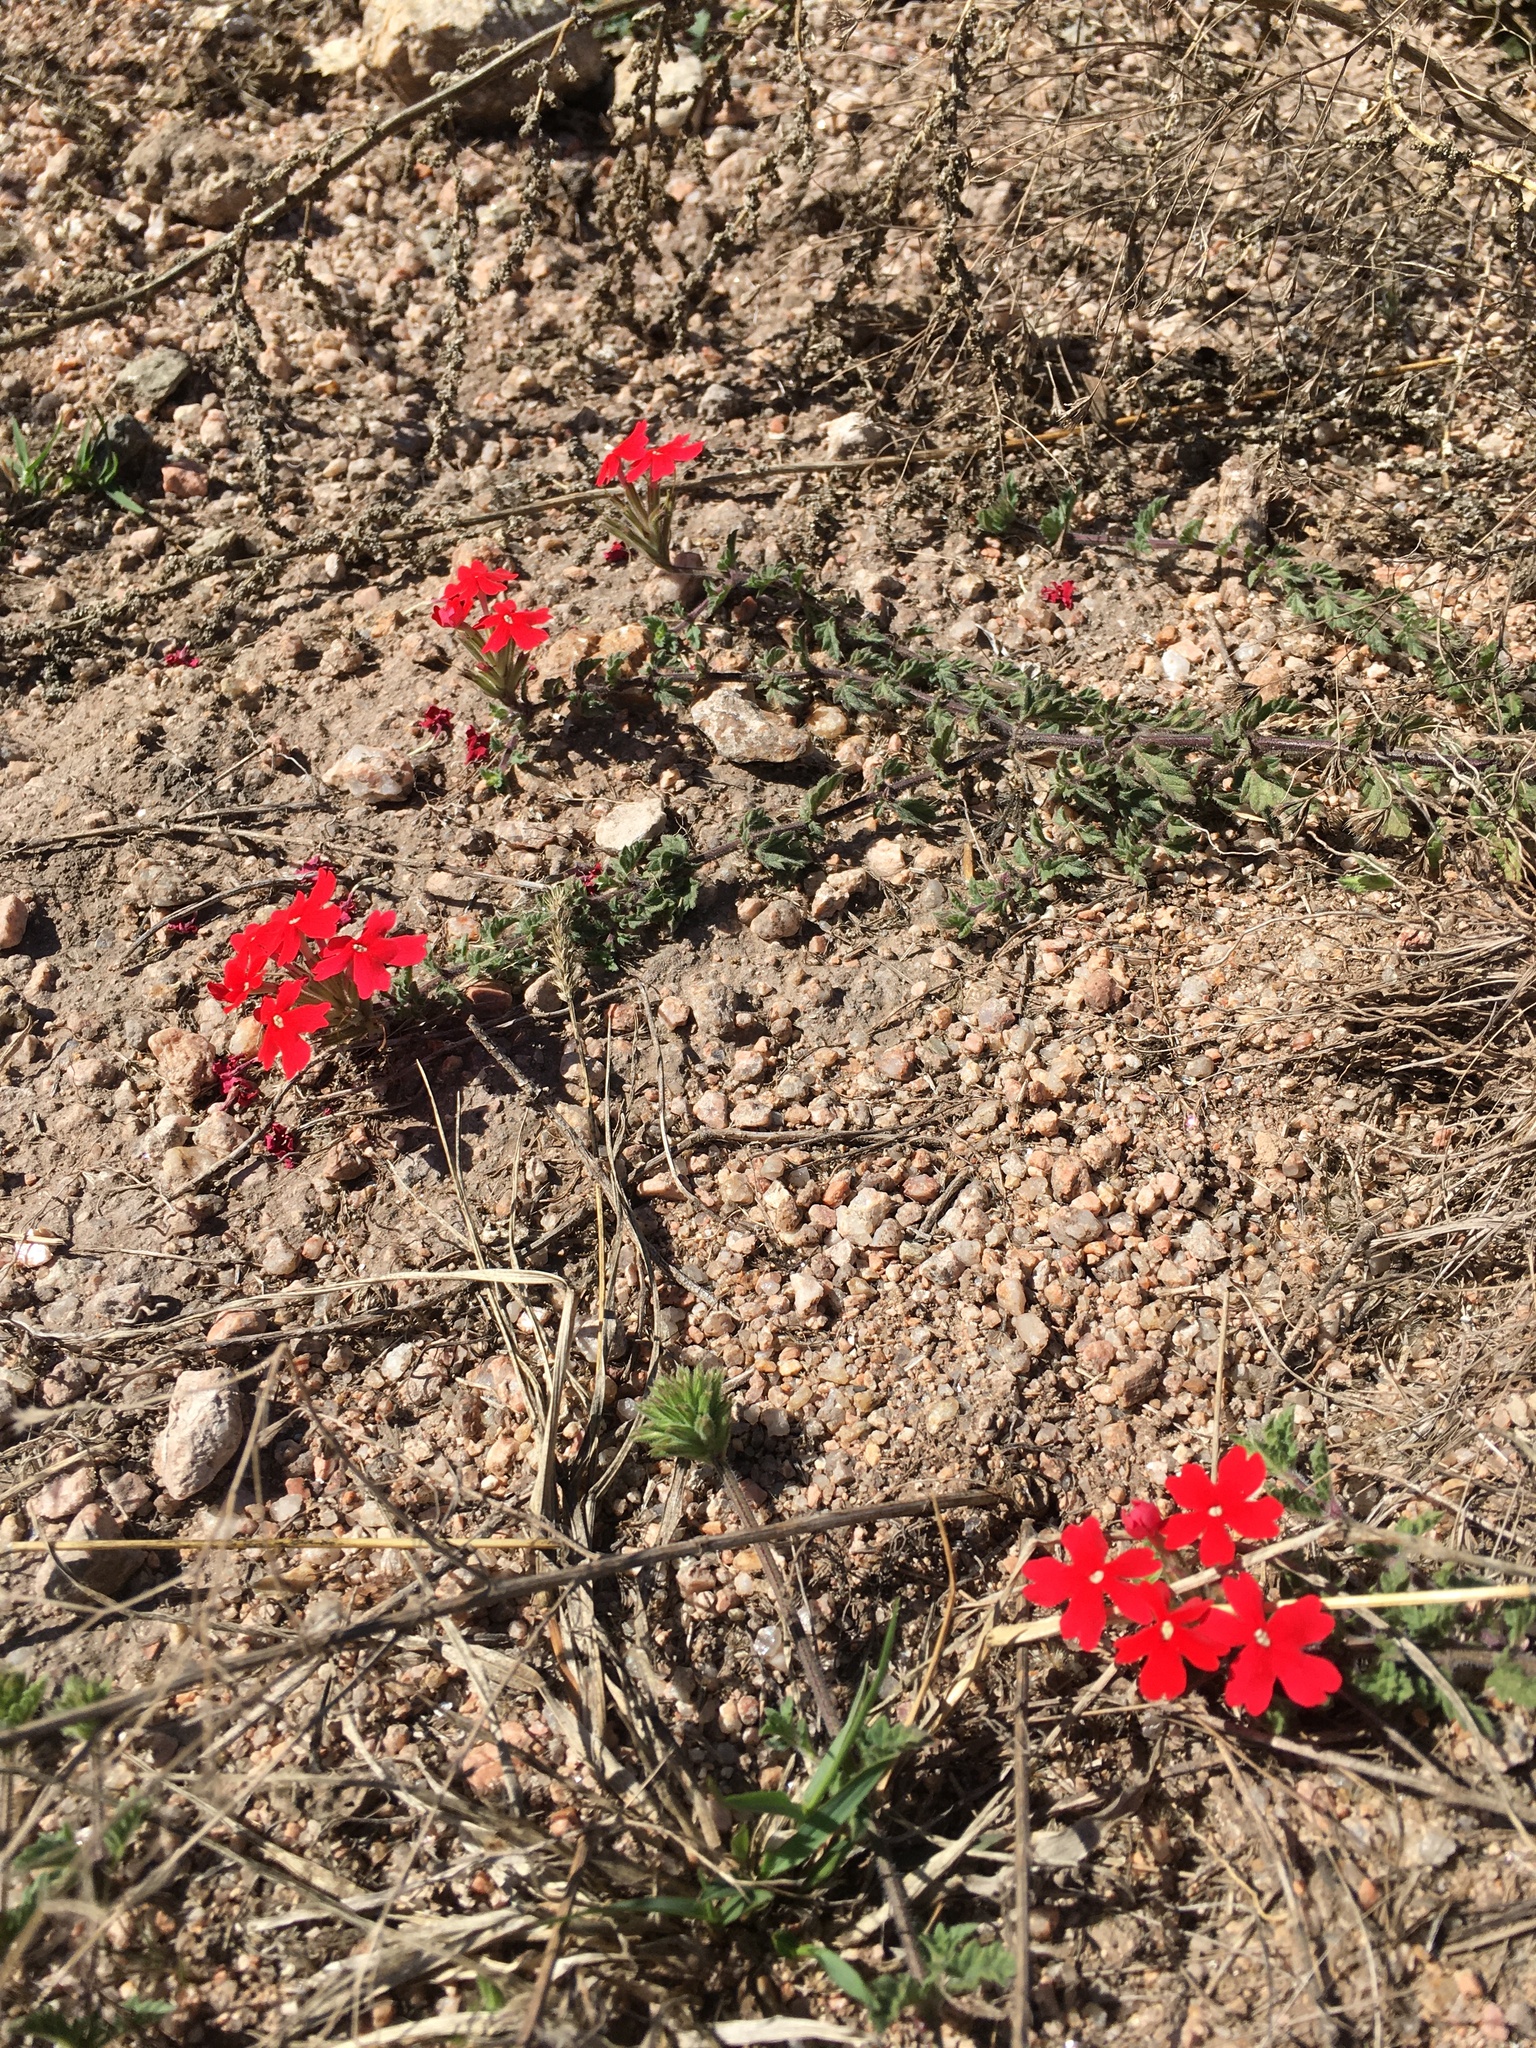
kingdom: Plantae
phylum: Tracheophyta
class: Magnoliopsida
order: Lamiales
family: Verbenaceae
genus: Verbena
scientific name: Verbena peruviana
